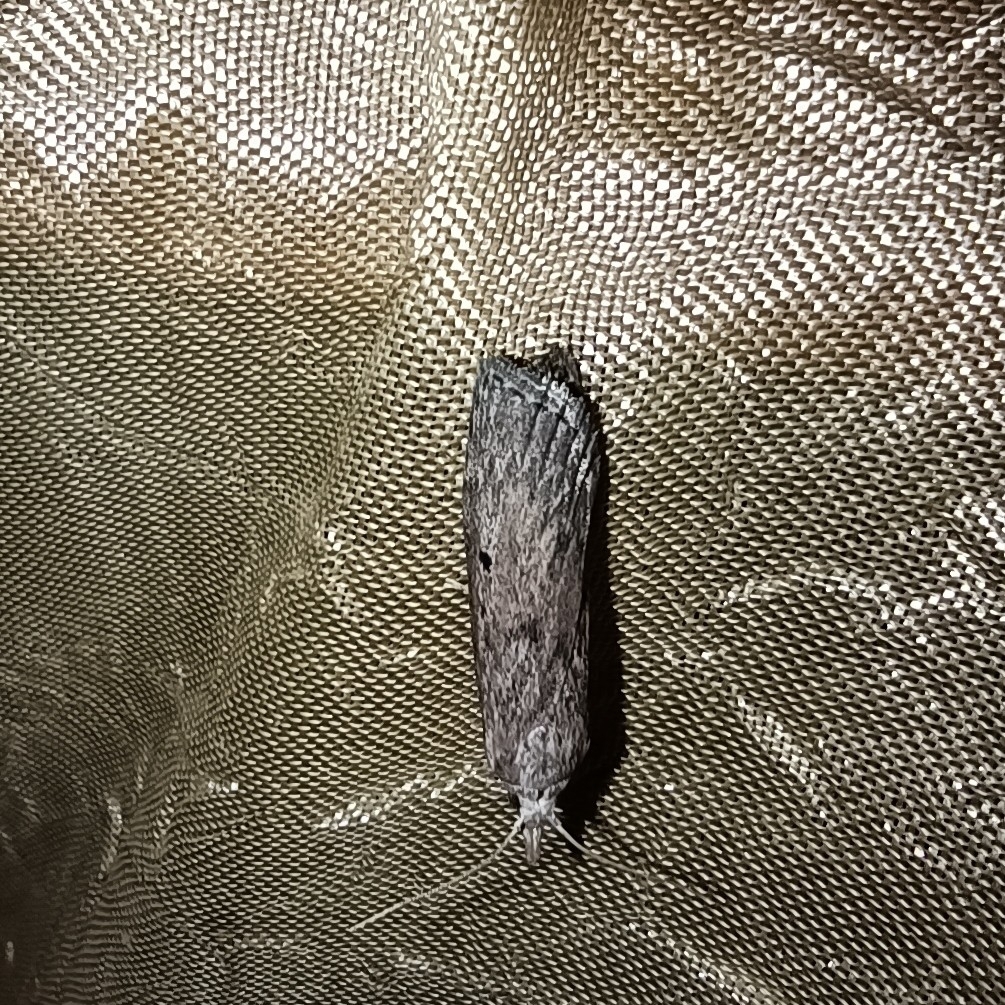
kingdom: Animalia
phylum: Arthropoda
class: Insecta
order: Lepidoptera
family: Pyralidae
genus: Aphomia
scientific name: Aphomia sociella
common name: Bee moth
